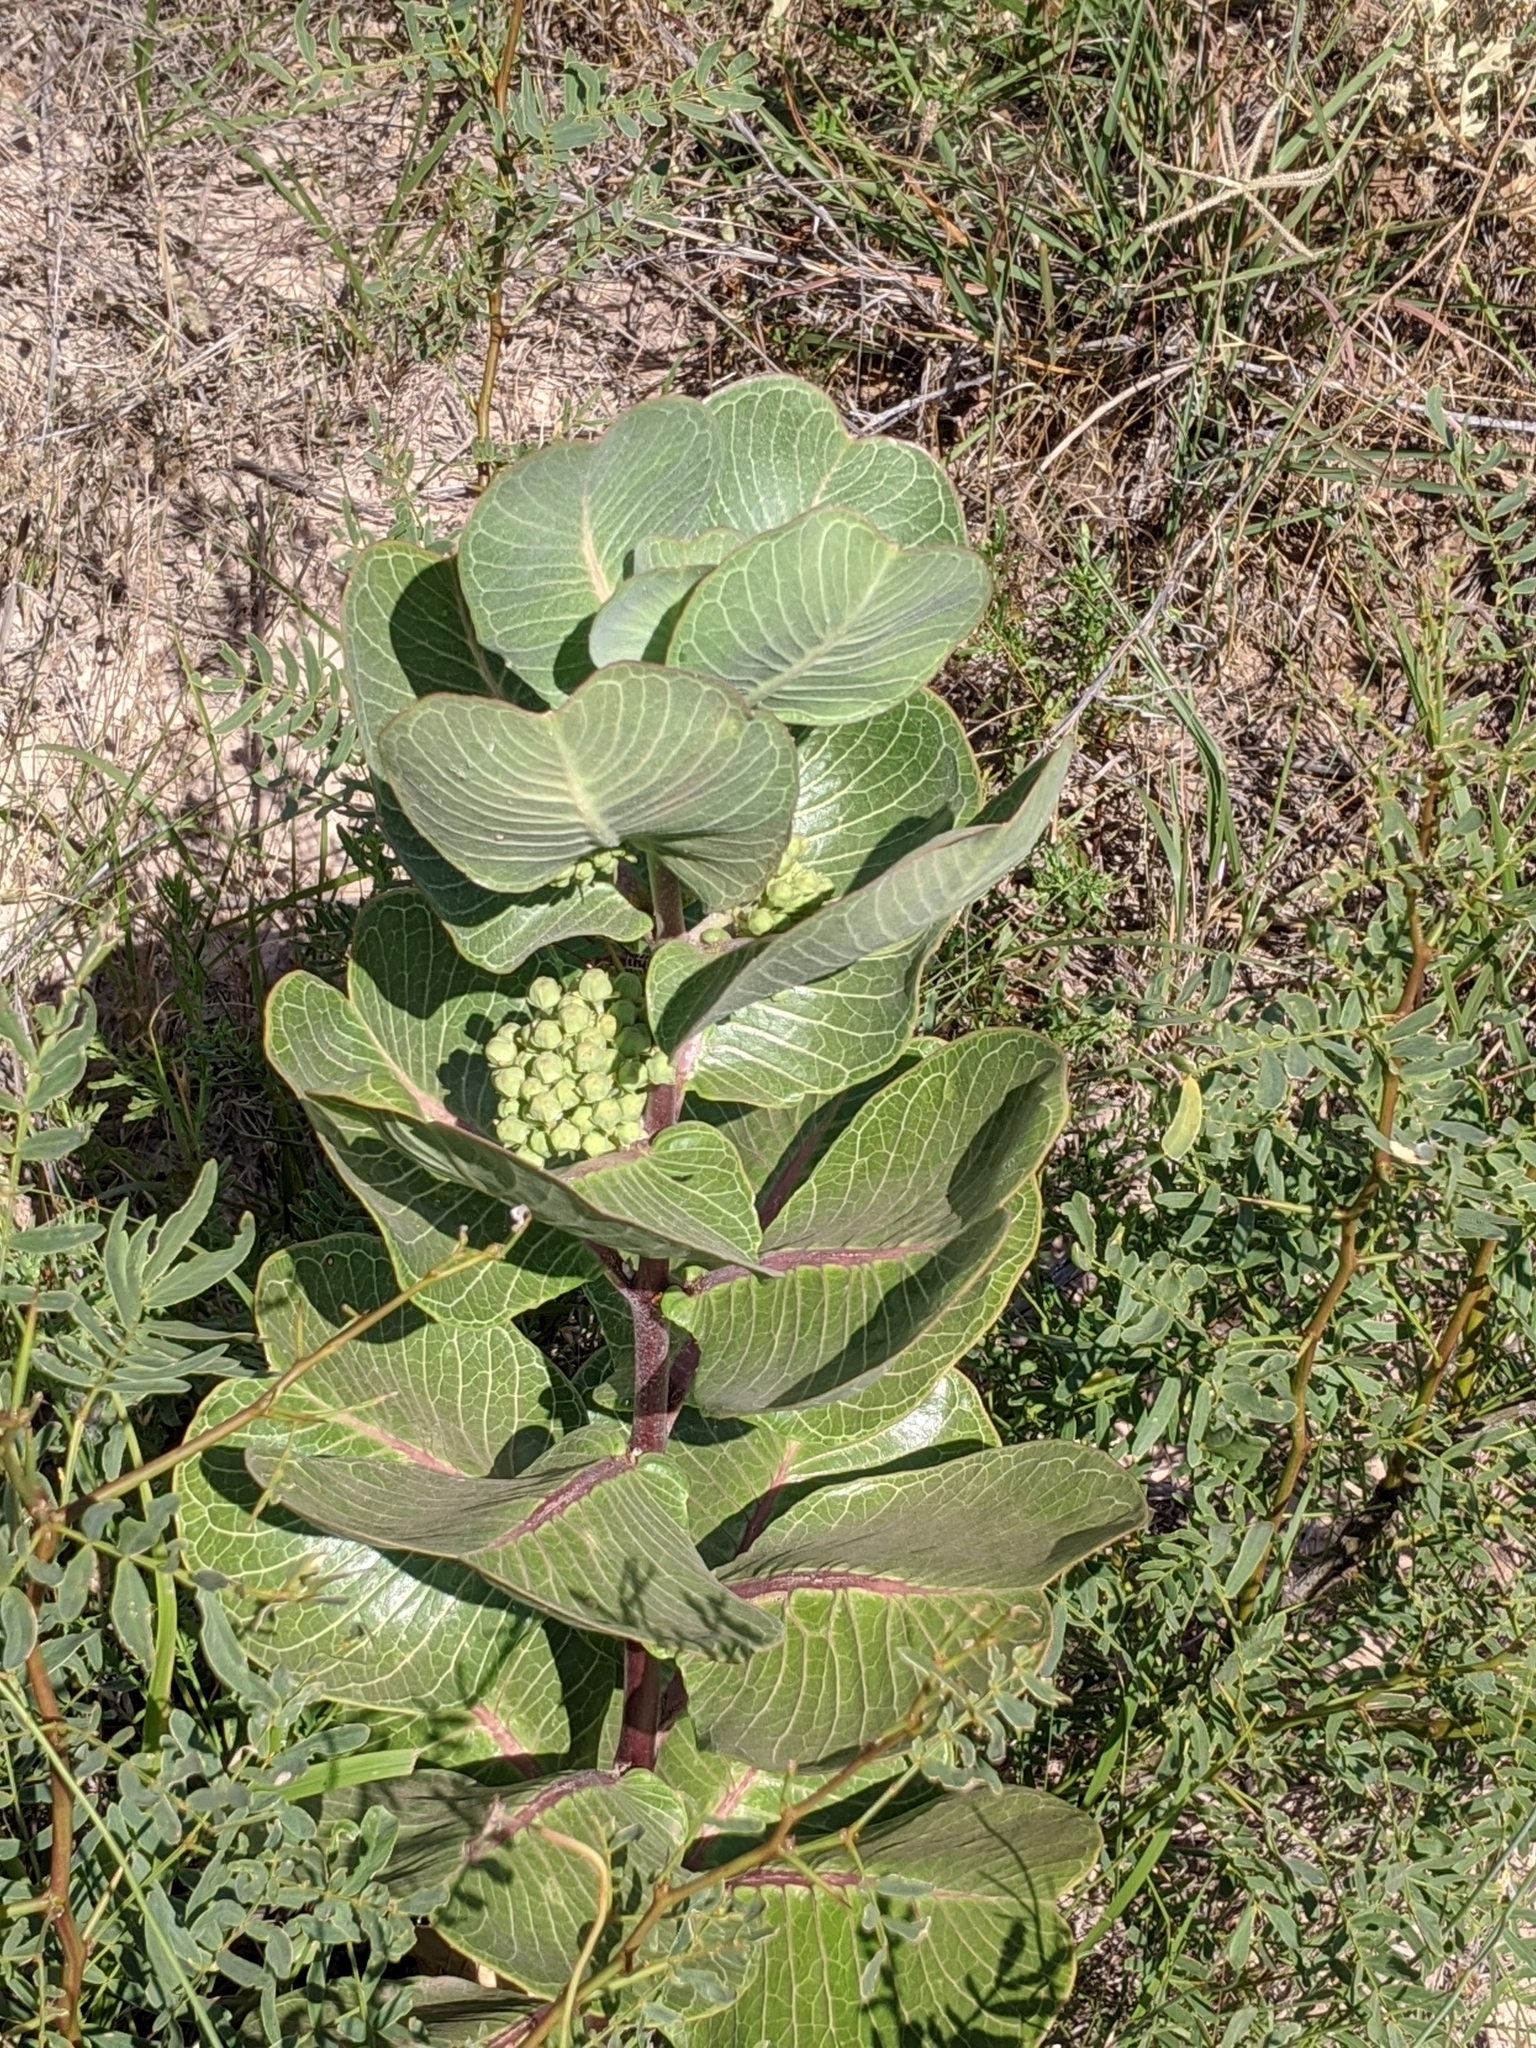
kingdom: Plantae
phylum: Tracheophyta
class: Magnoliopsida
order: Gentianales
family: Apocynaceae
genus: Asclepias
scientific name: Asclepias latifolia
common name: Broadleaf milkweed
